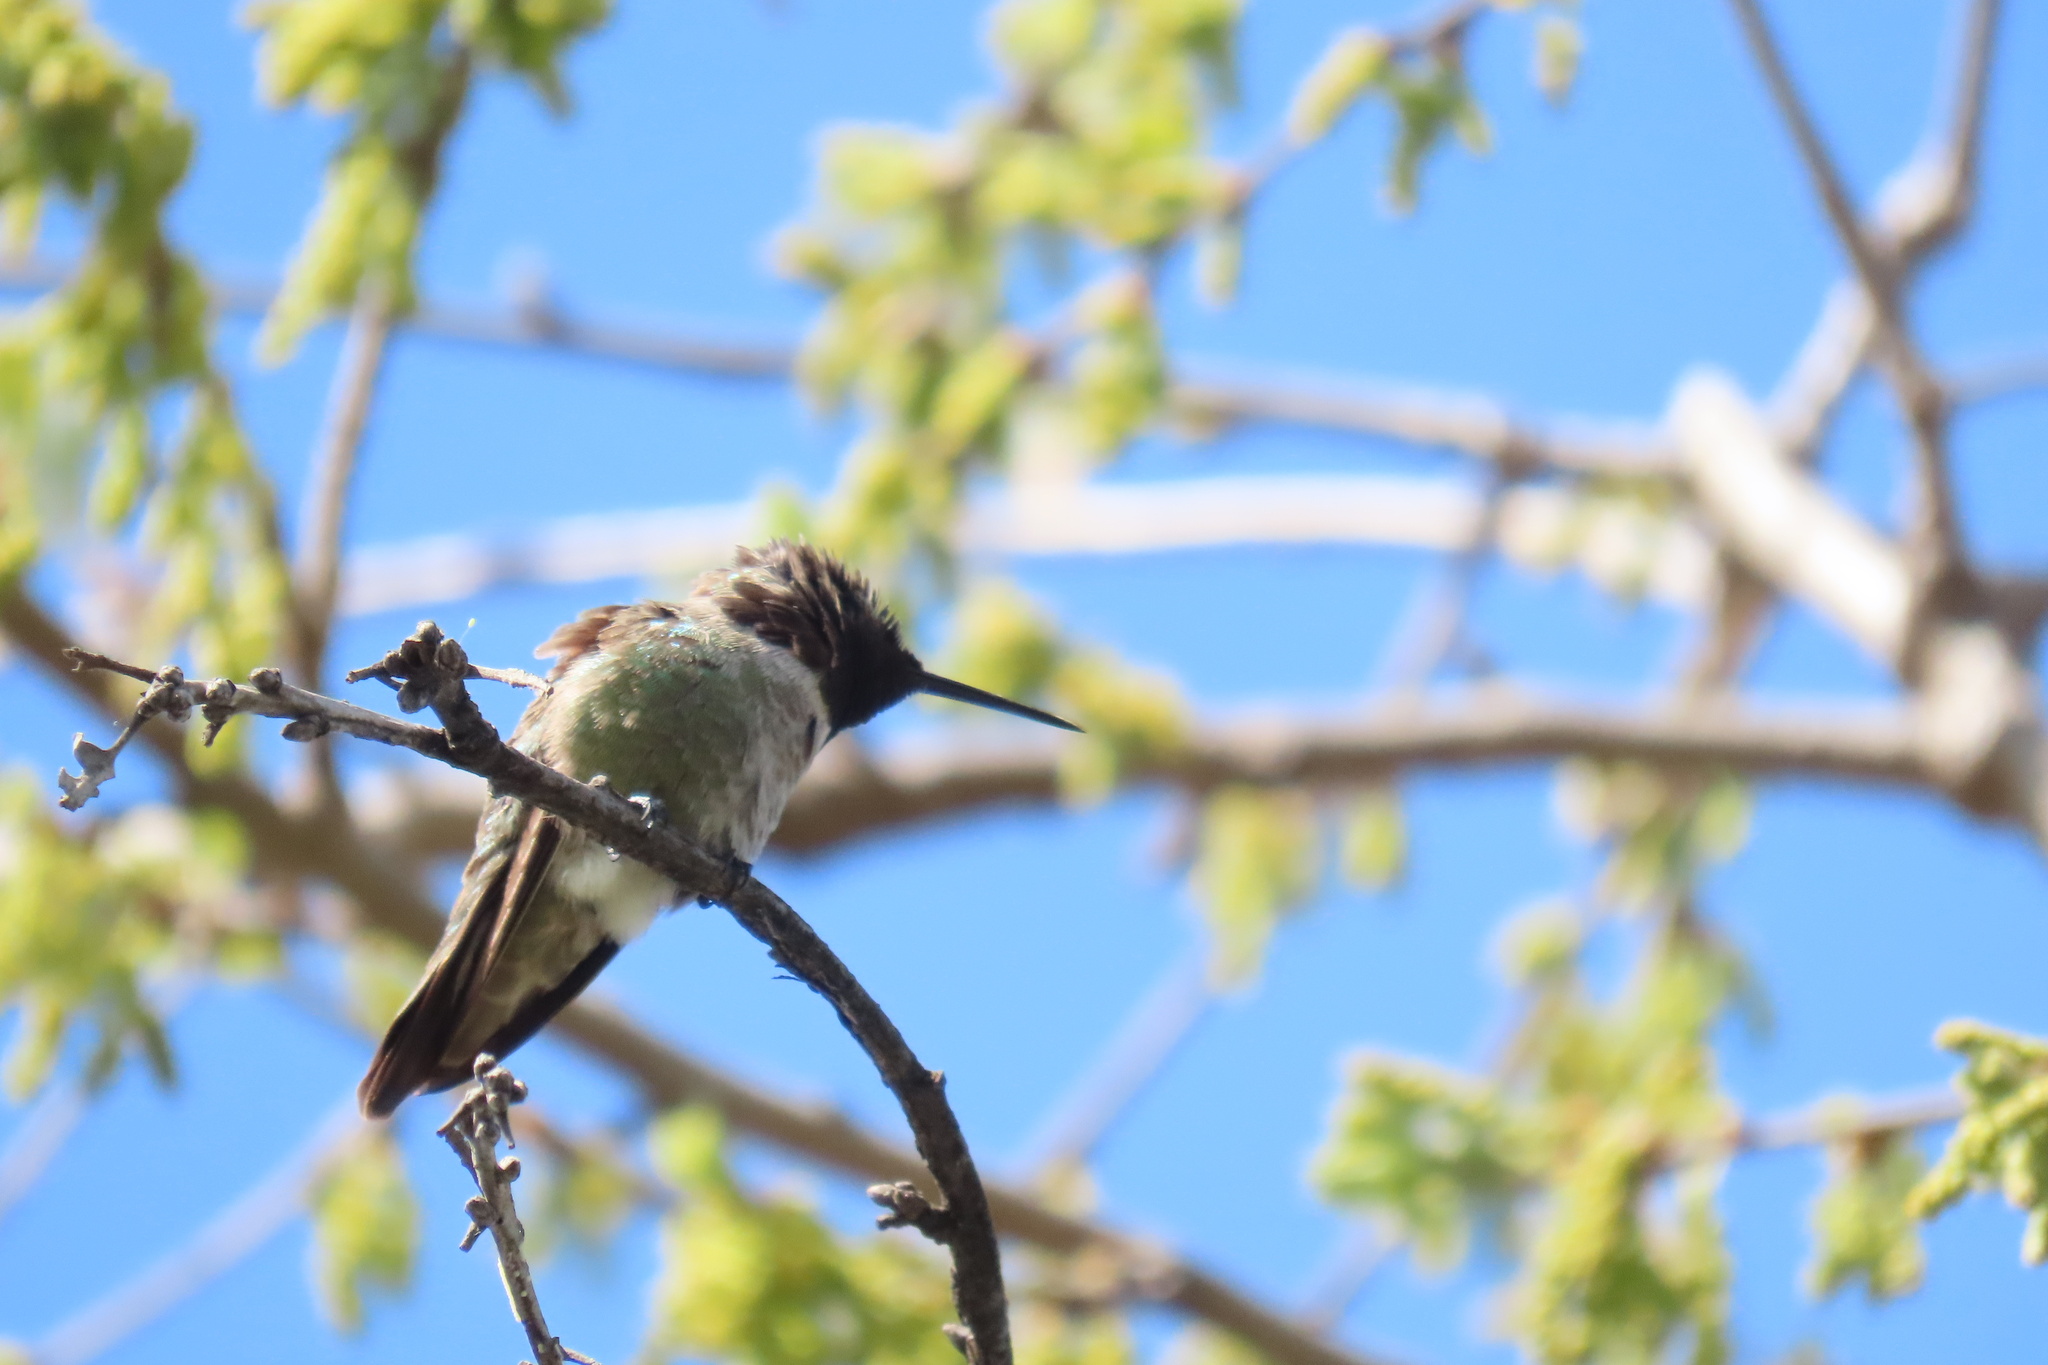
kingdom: Animalia
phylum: Chordata
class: Aves
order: Apodiformes
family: Trochilidae
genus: Calypte
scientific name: Calypte anna
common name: Anna's hummingbird
